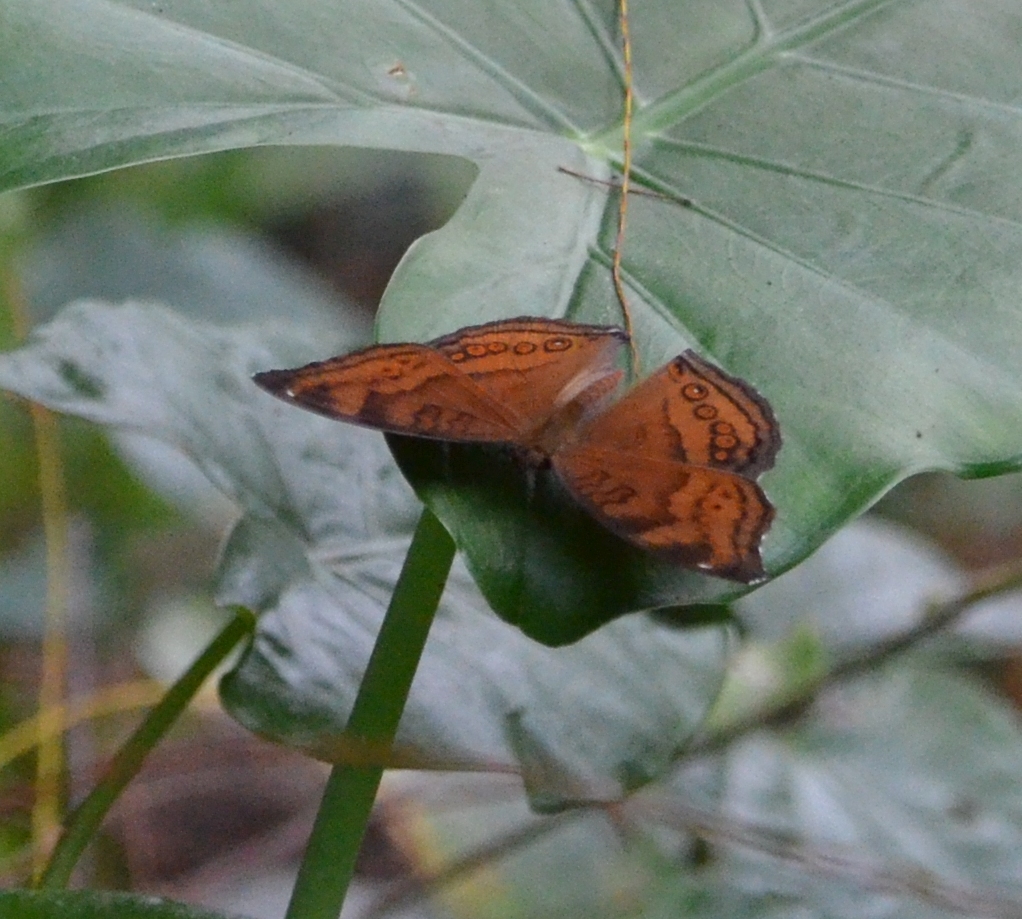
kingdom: Animalia
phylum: Arthropoda
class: Insecta
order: Lepidoptera
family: Nymphalidae
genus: Junonia
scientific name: Junonia hedonia
